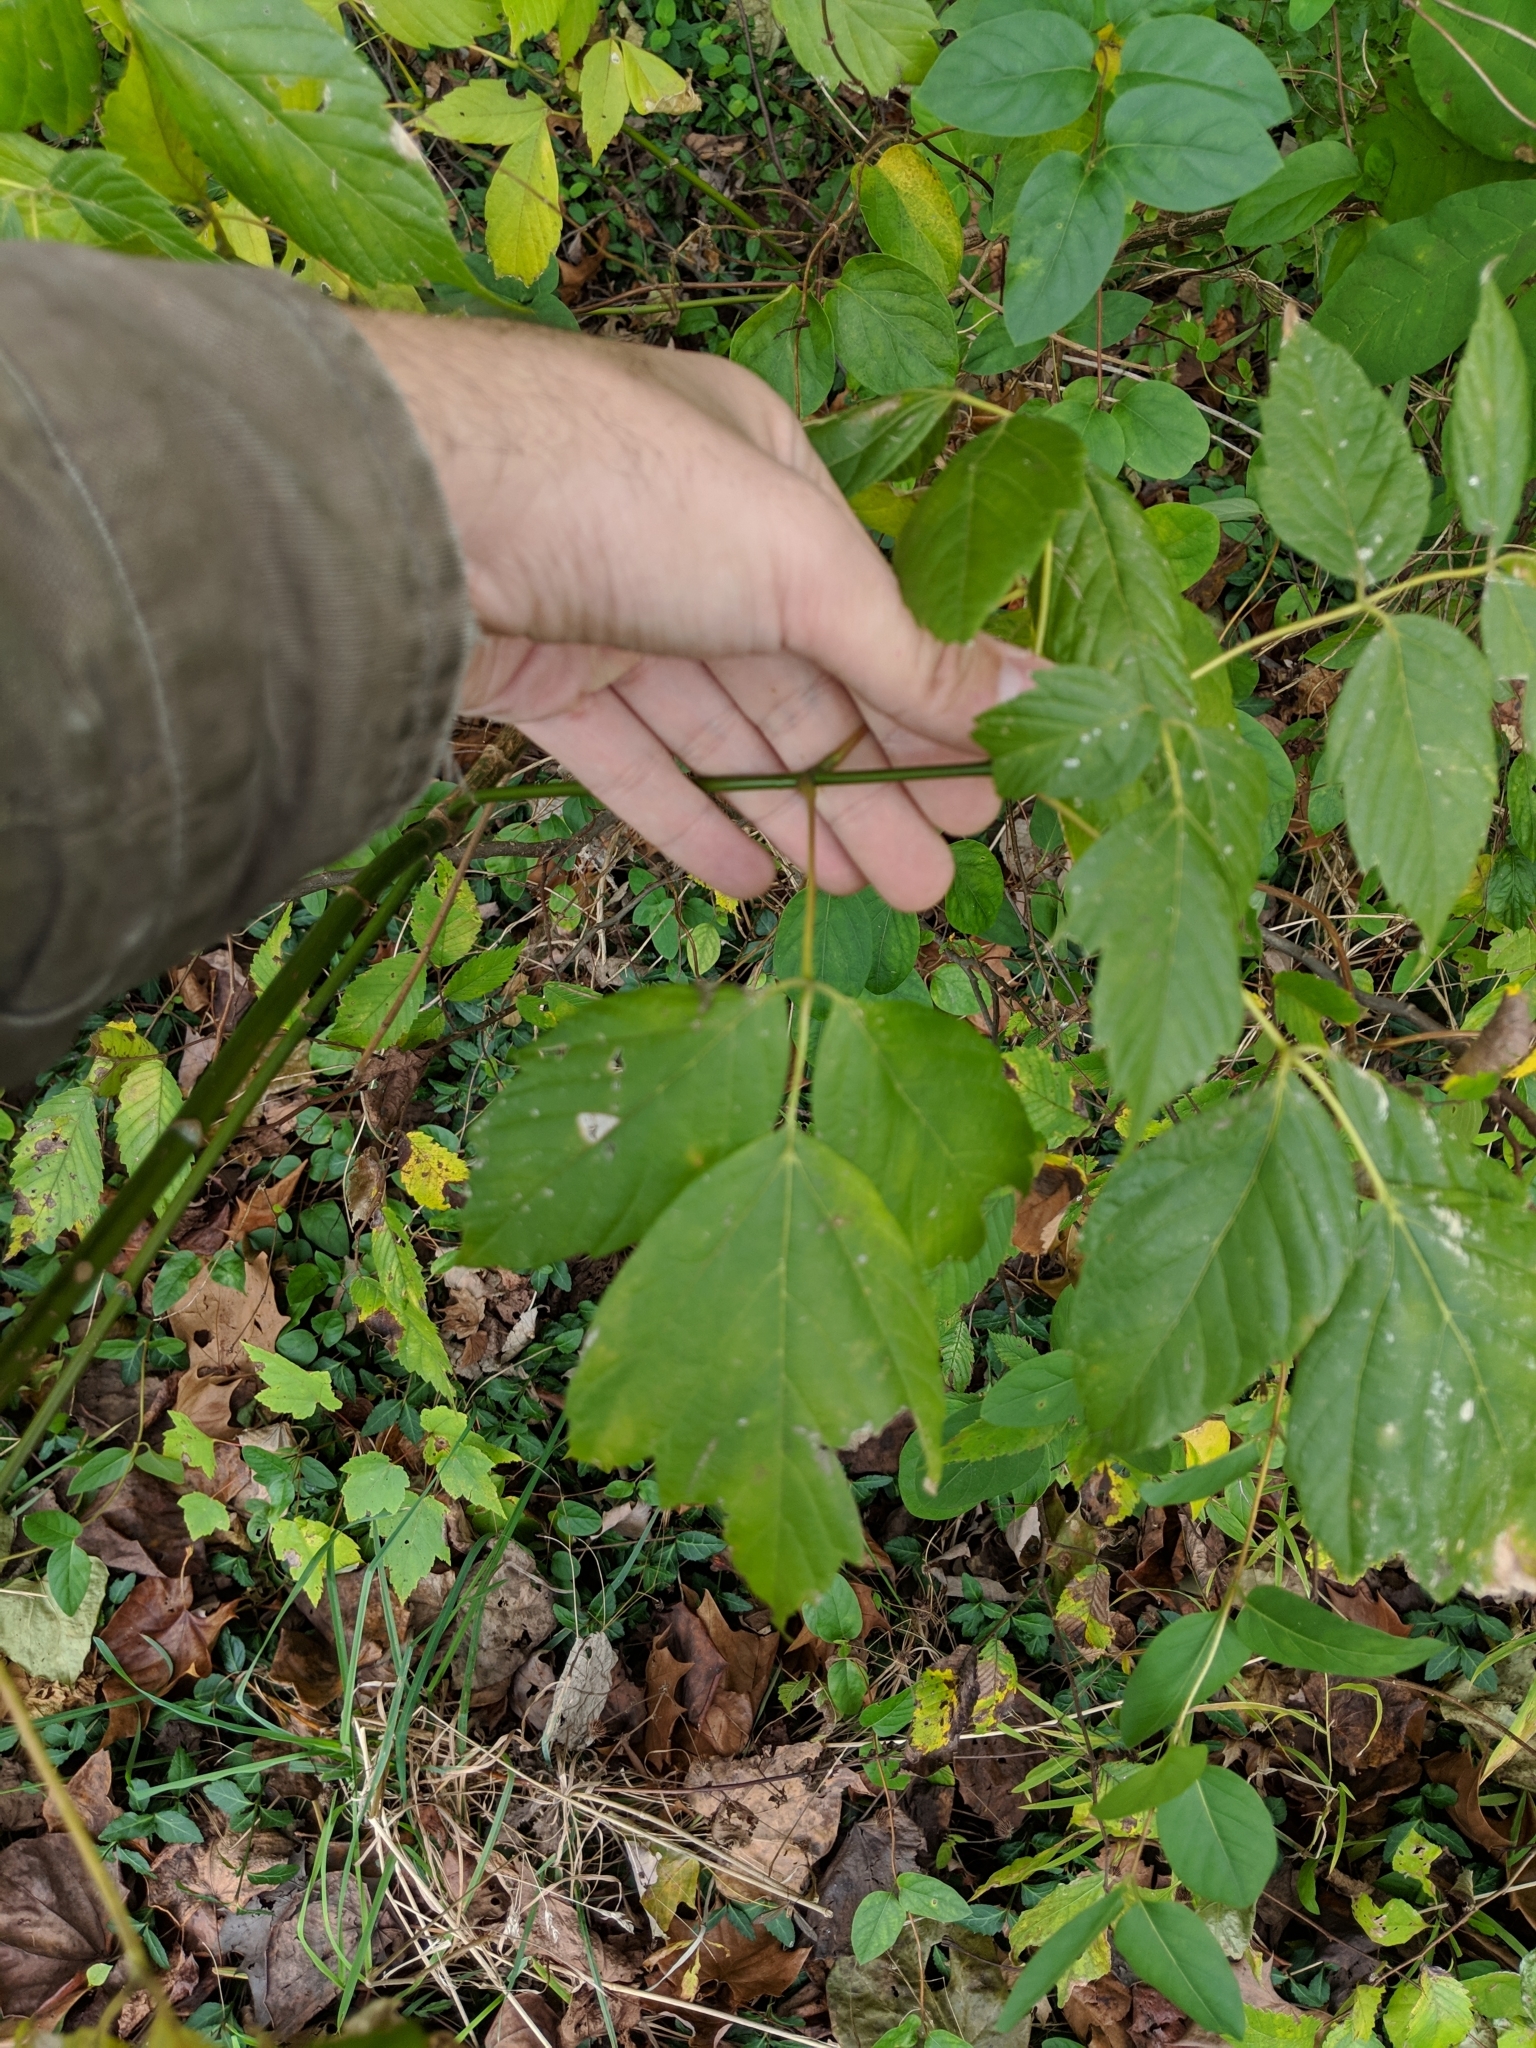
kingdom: Plantae
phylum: Tracheophyta
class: Magnoliopsida
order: Sapindales
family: Sapindaceae
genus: Acer
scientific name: Acer negundo
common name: Ashleaf maple
